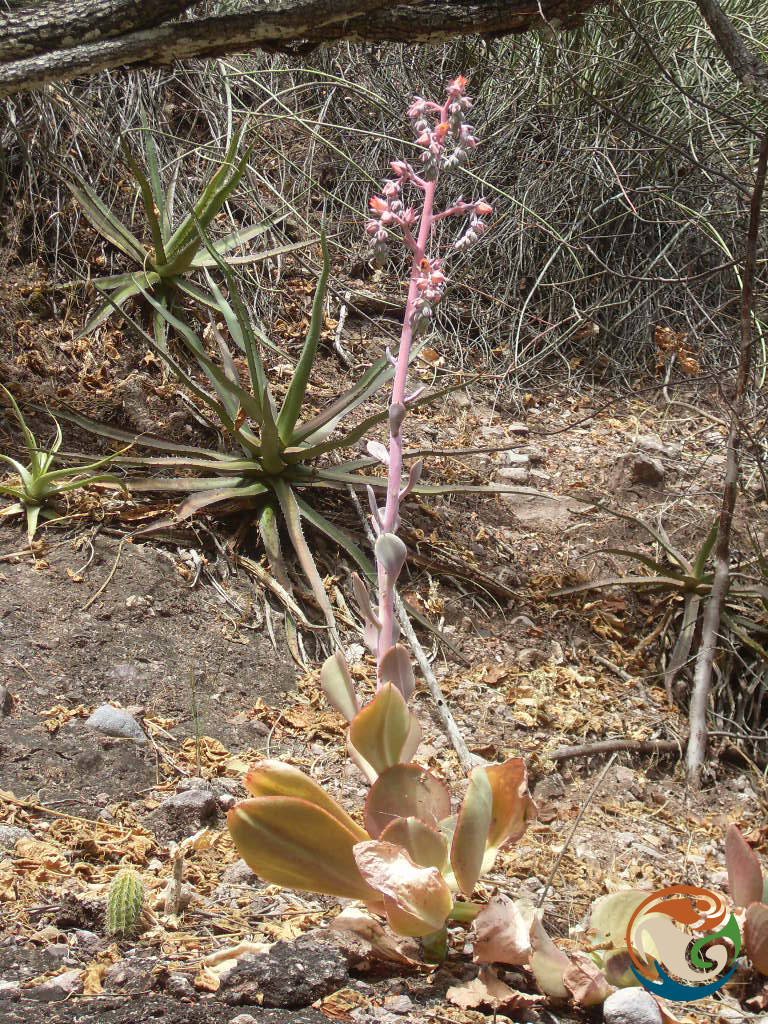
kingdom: Plantae
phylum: Tracheophyta
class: Magnoliopsida
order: Saxifragales
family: Crassulaceae
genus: Echeveria
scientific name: Echeveria gibbiflora
